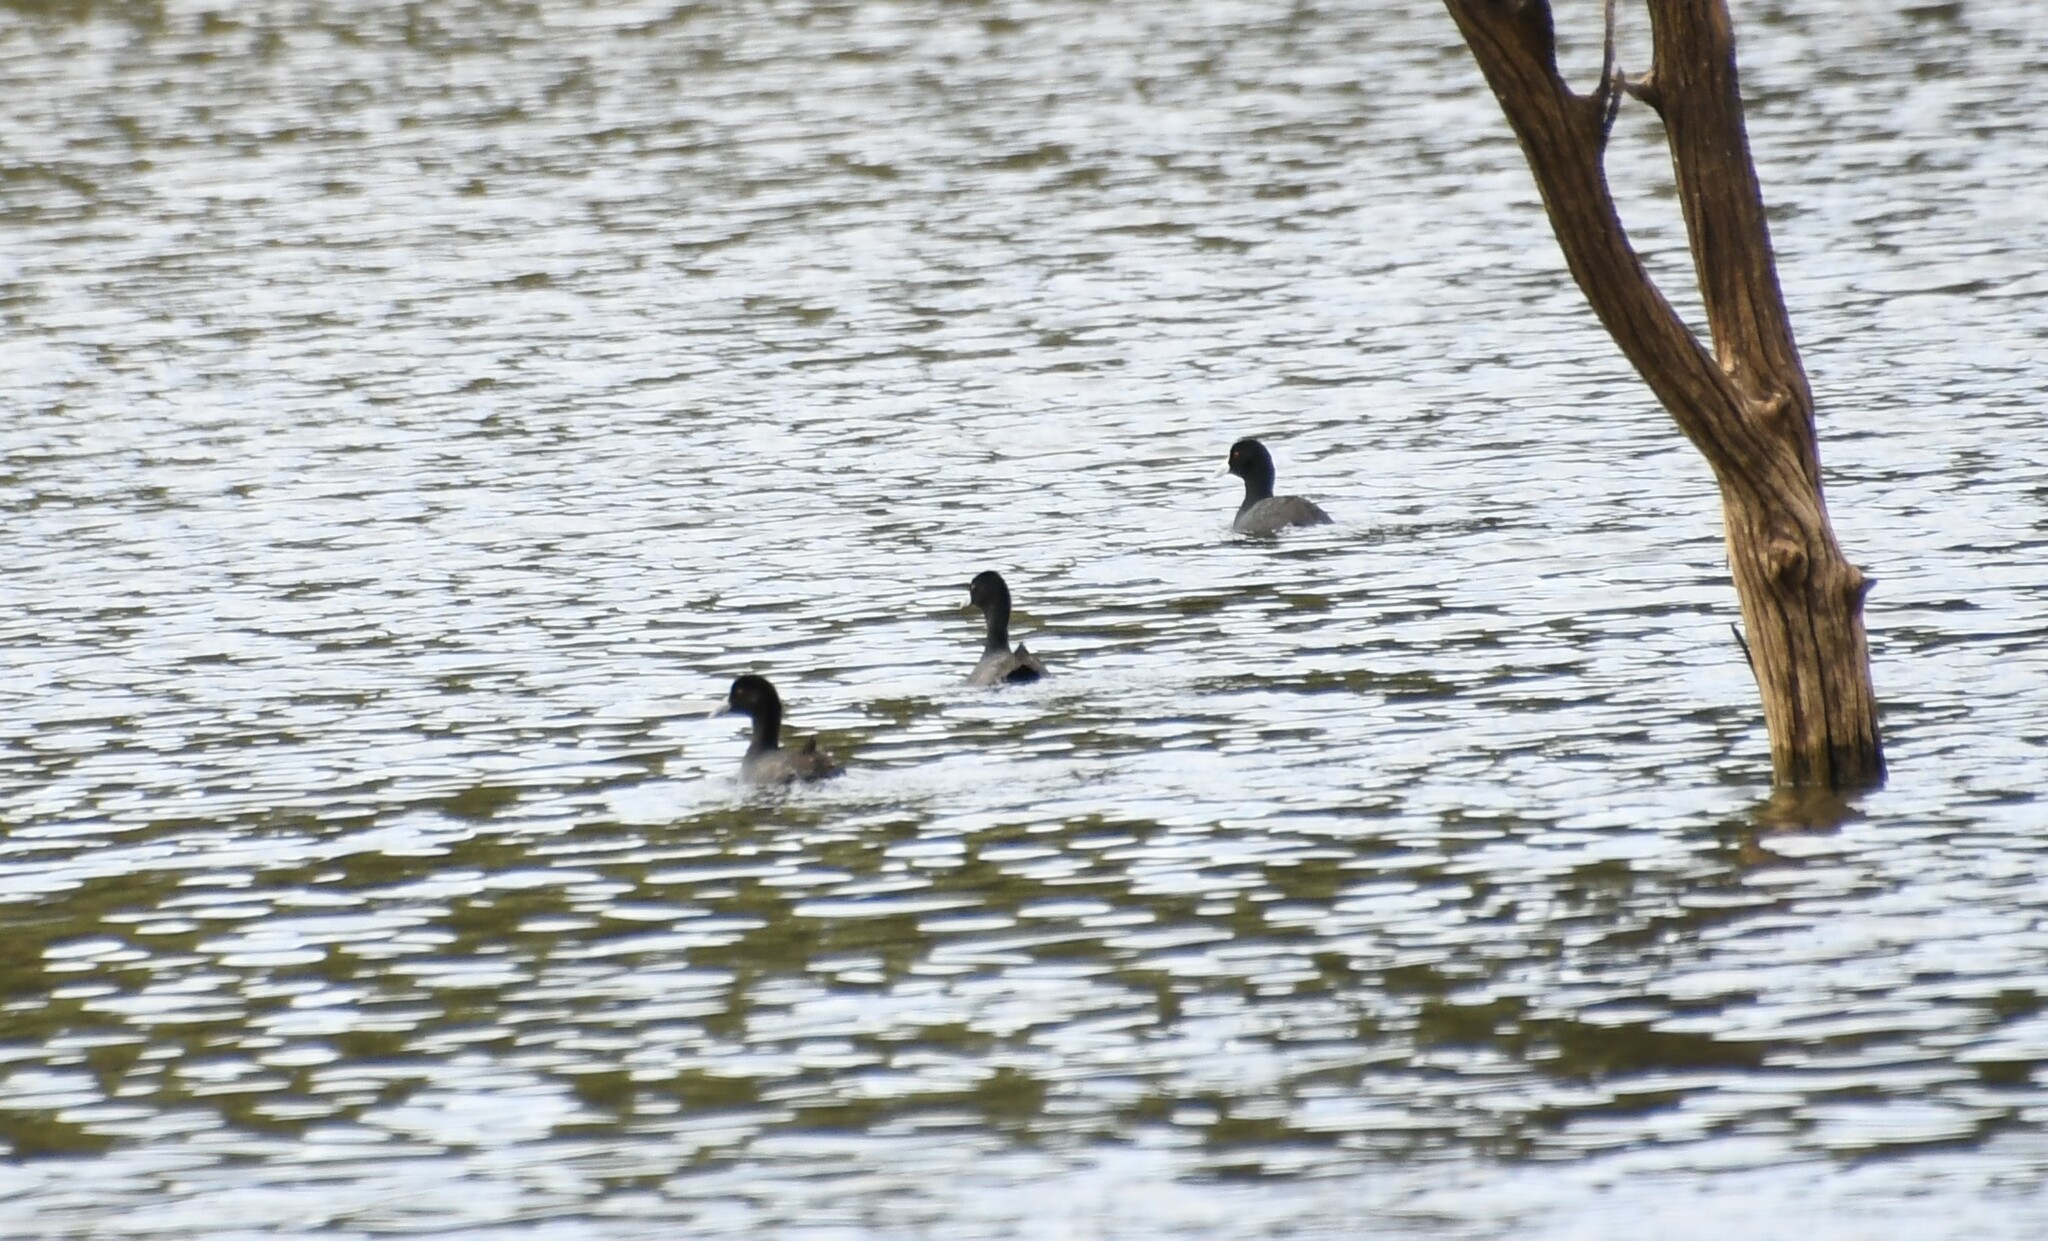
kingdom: Animalia
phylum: Chordata
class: Aves
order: Gruiformes
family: Rallidae
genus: Fulica
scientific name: Fulica atra
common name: Eurasian coot
